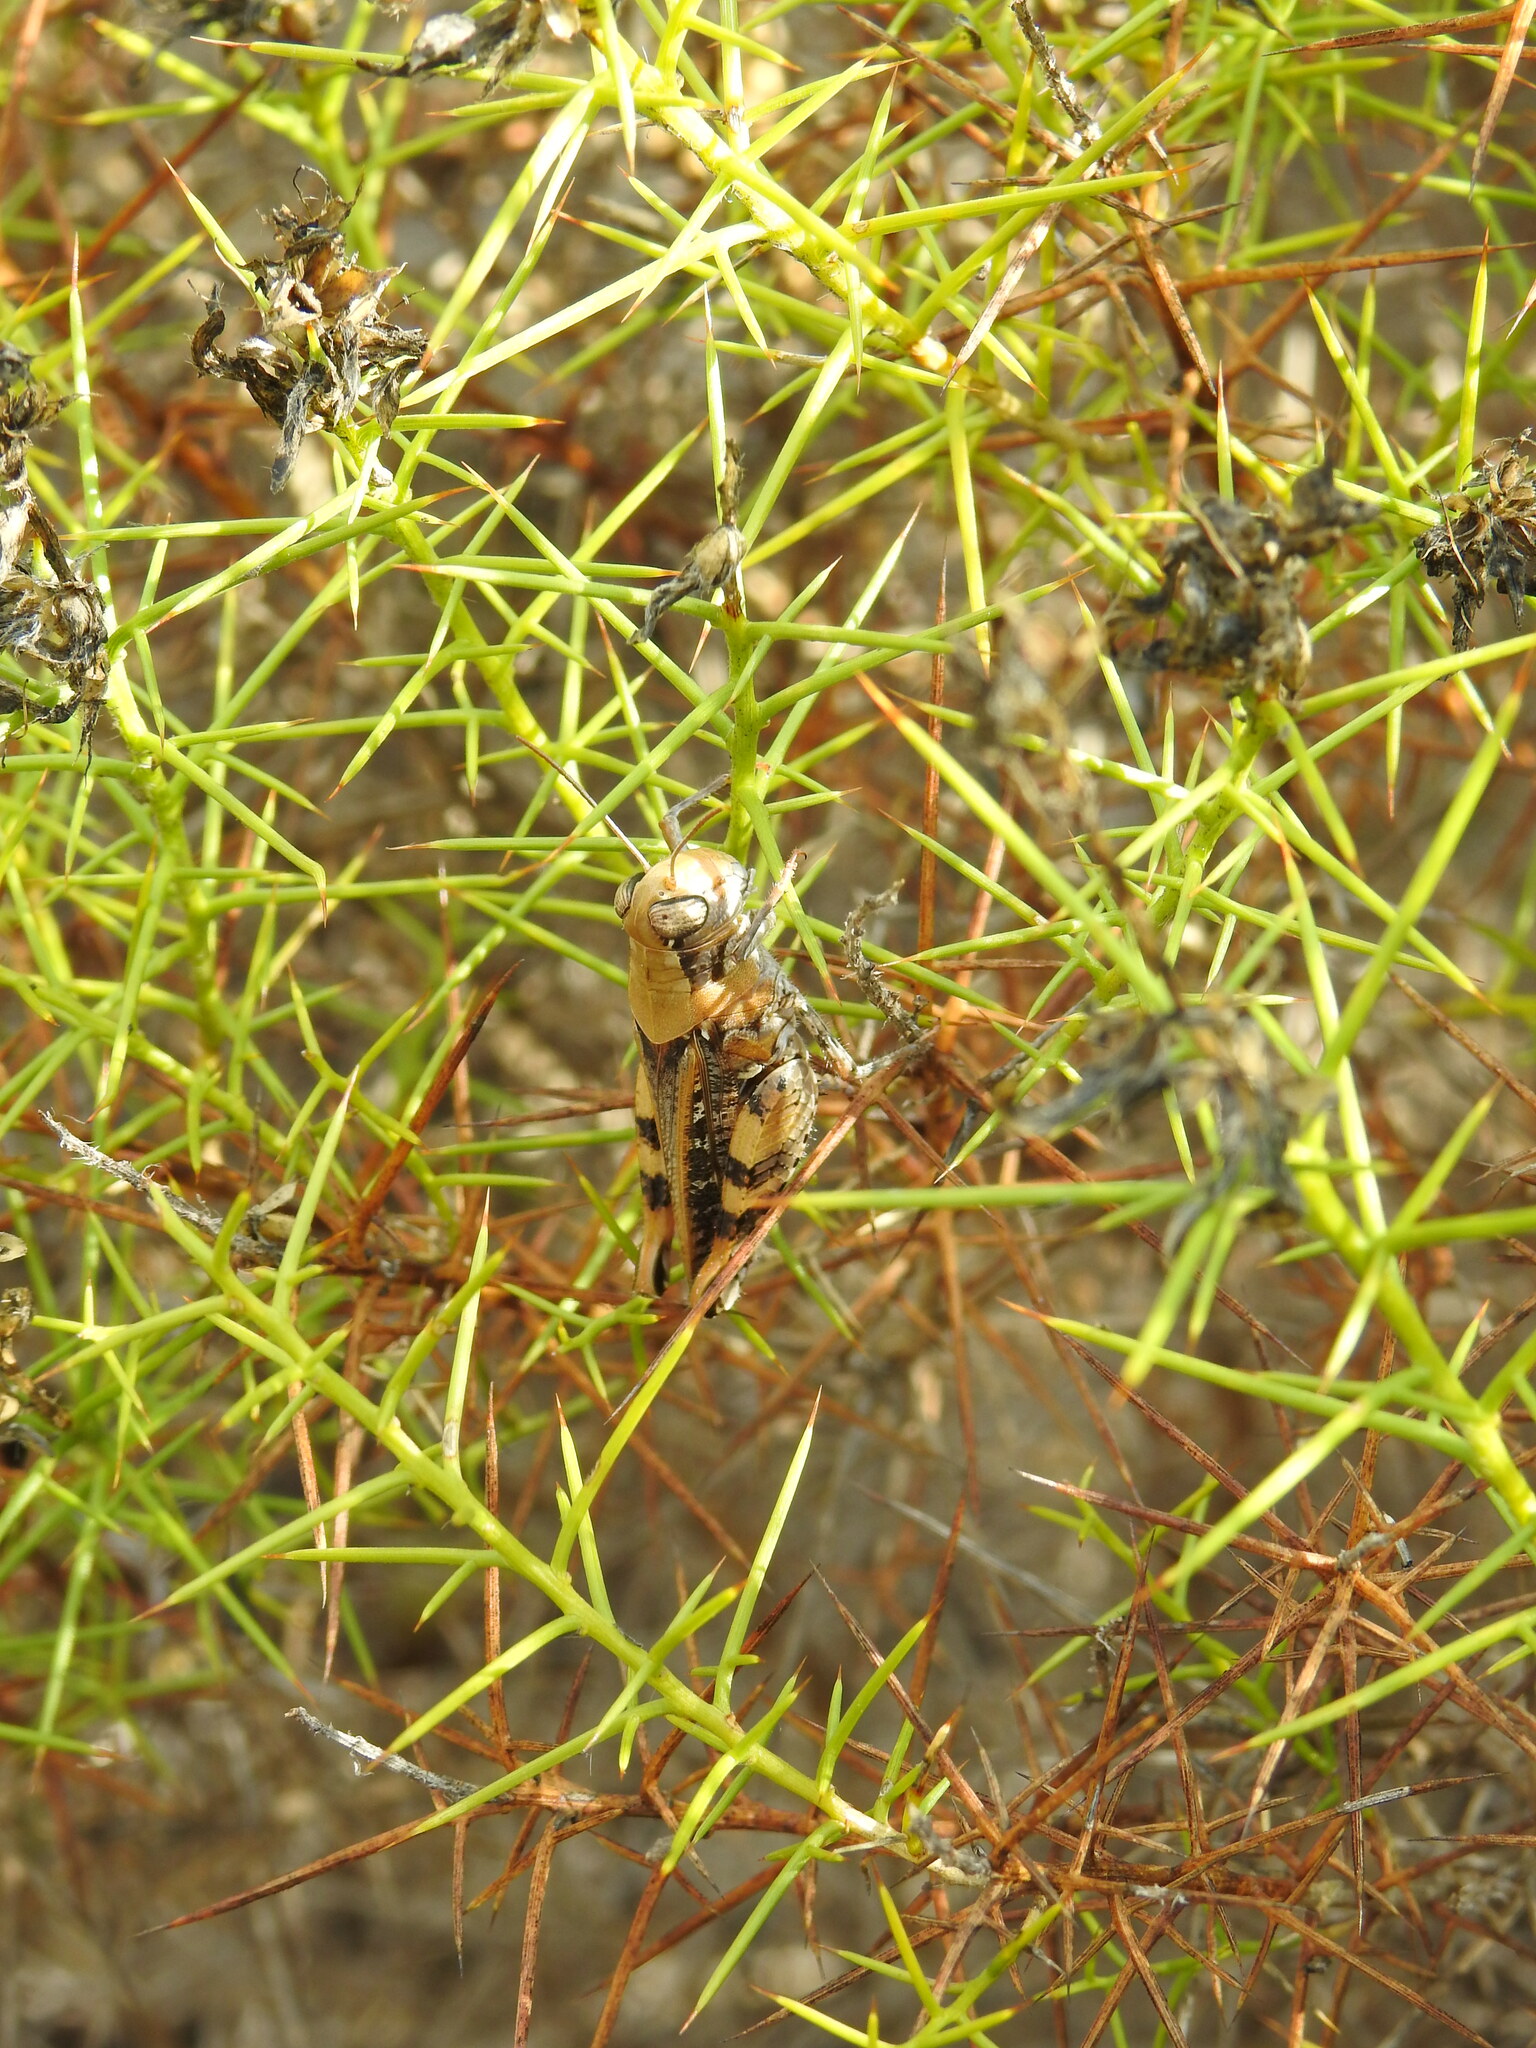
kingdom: Animalia
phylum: Arthropoda
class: Insecta
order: Orthoptera
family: Acrididae
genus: Calliptamus
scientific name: Calliptamus barbarus
